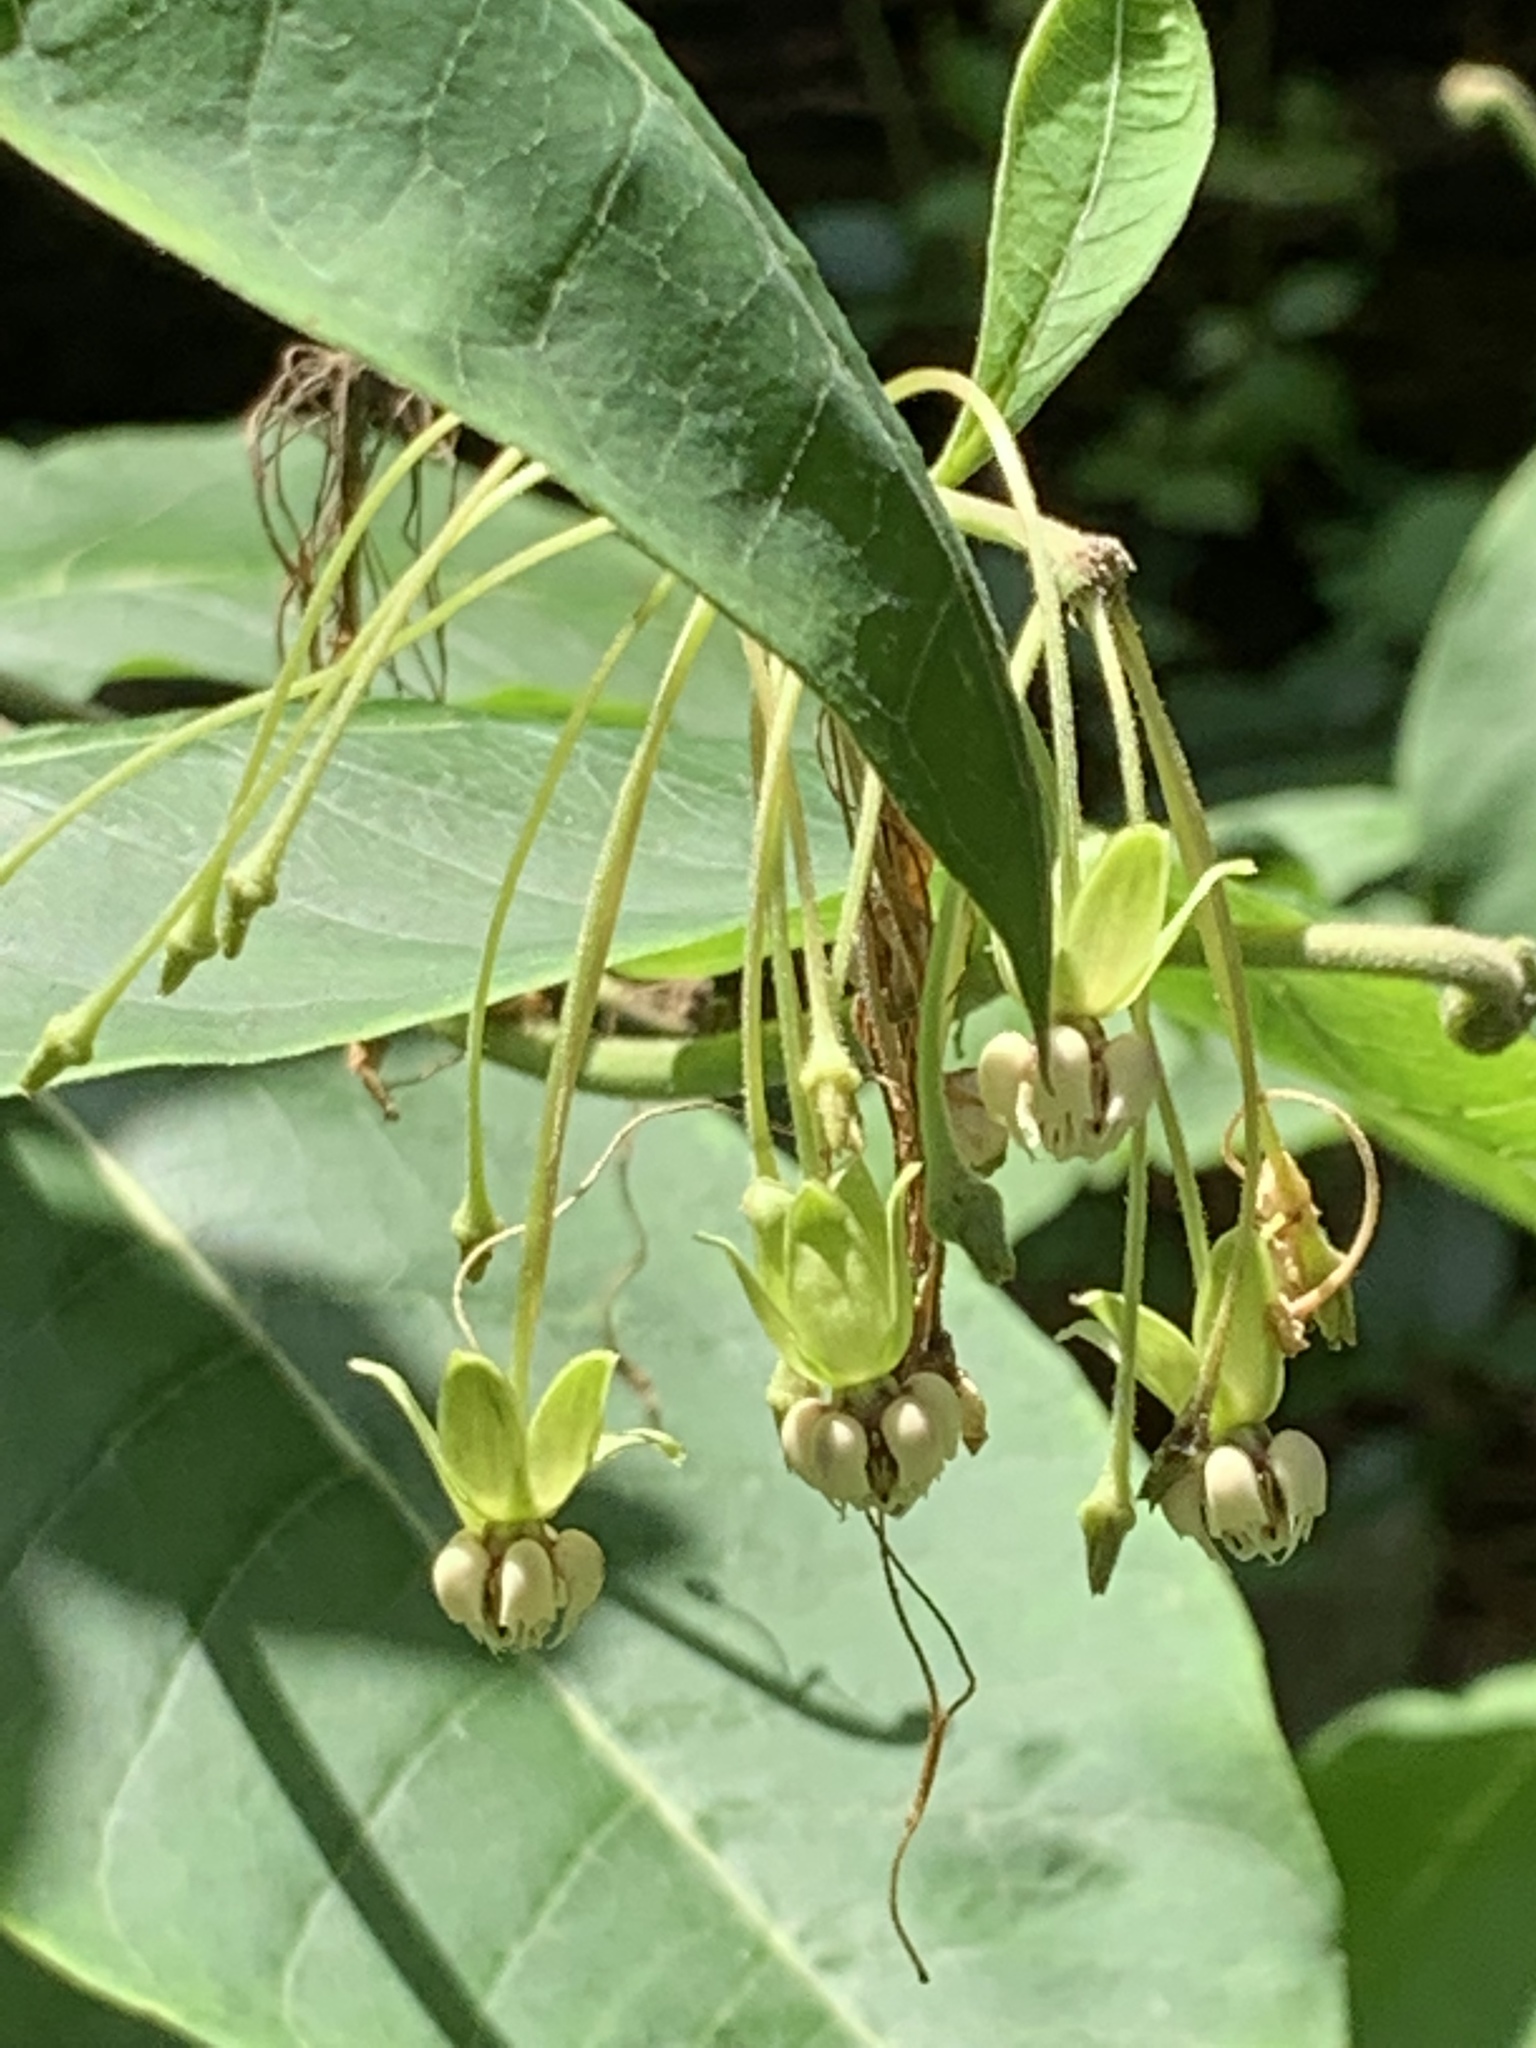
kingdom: Plantae
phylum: Tracheophyta
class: Magnoliopsida
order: Gentianales
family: Apocynaceae
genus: Asclepias
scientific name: Asclepias exaltata
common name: Poke milkweed
